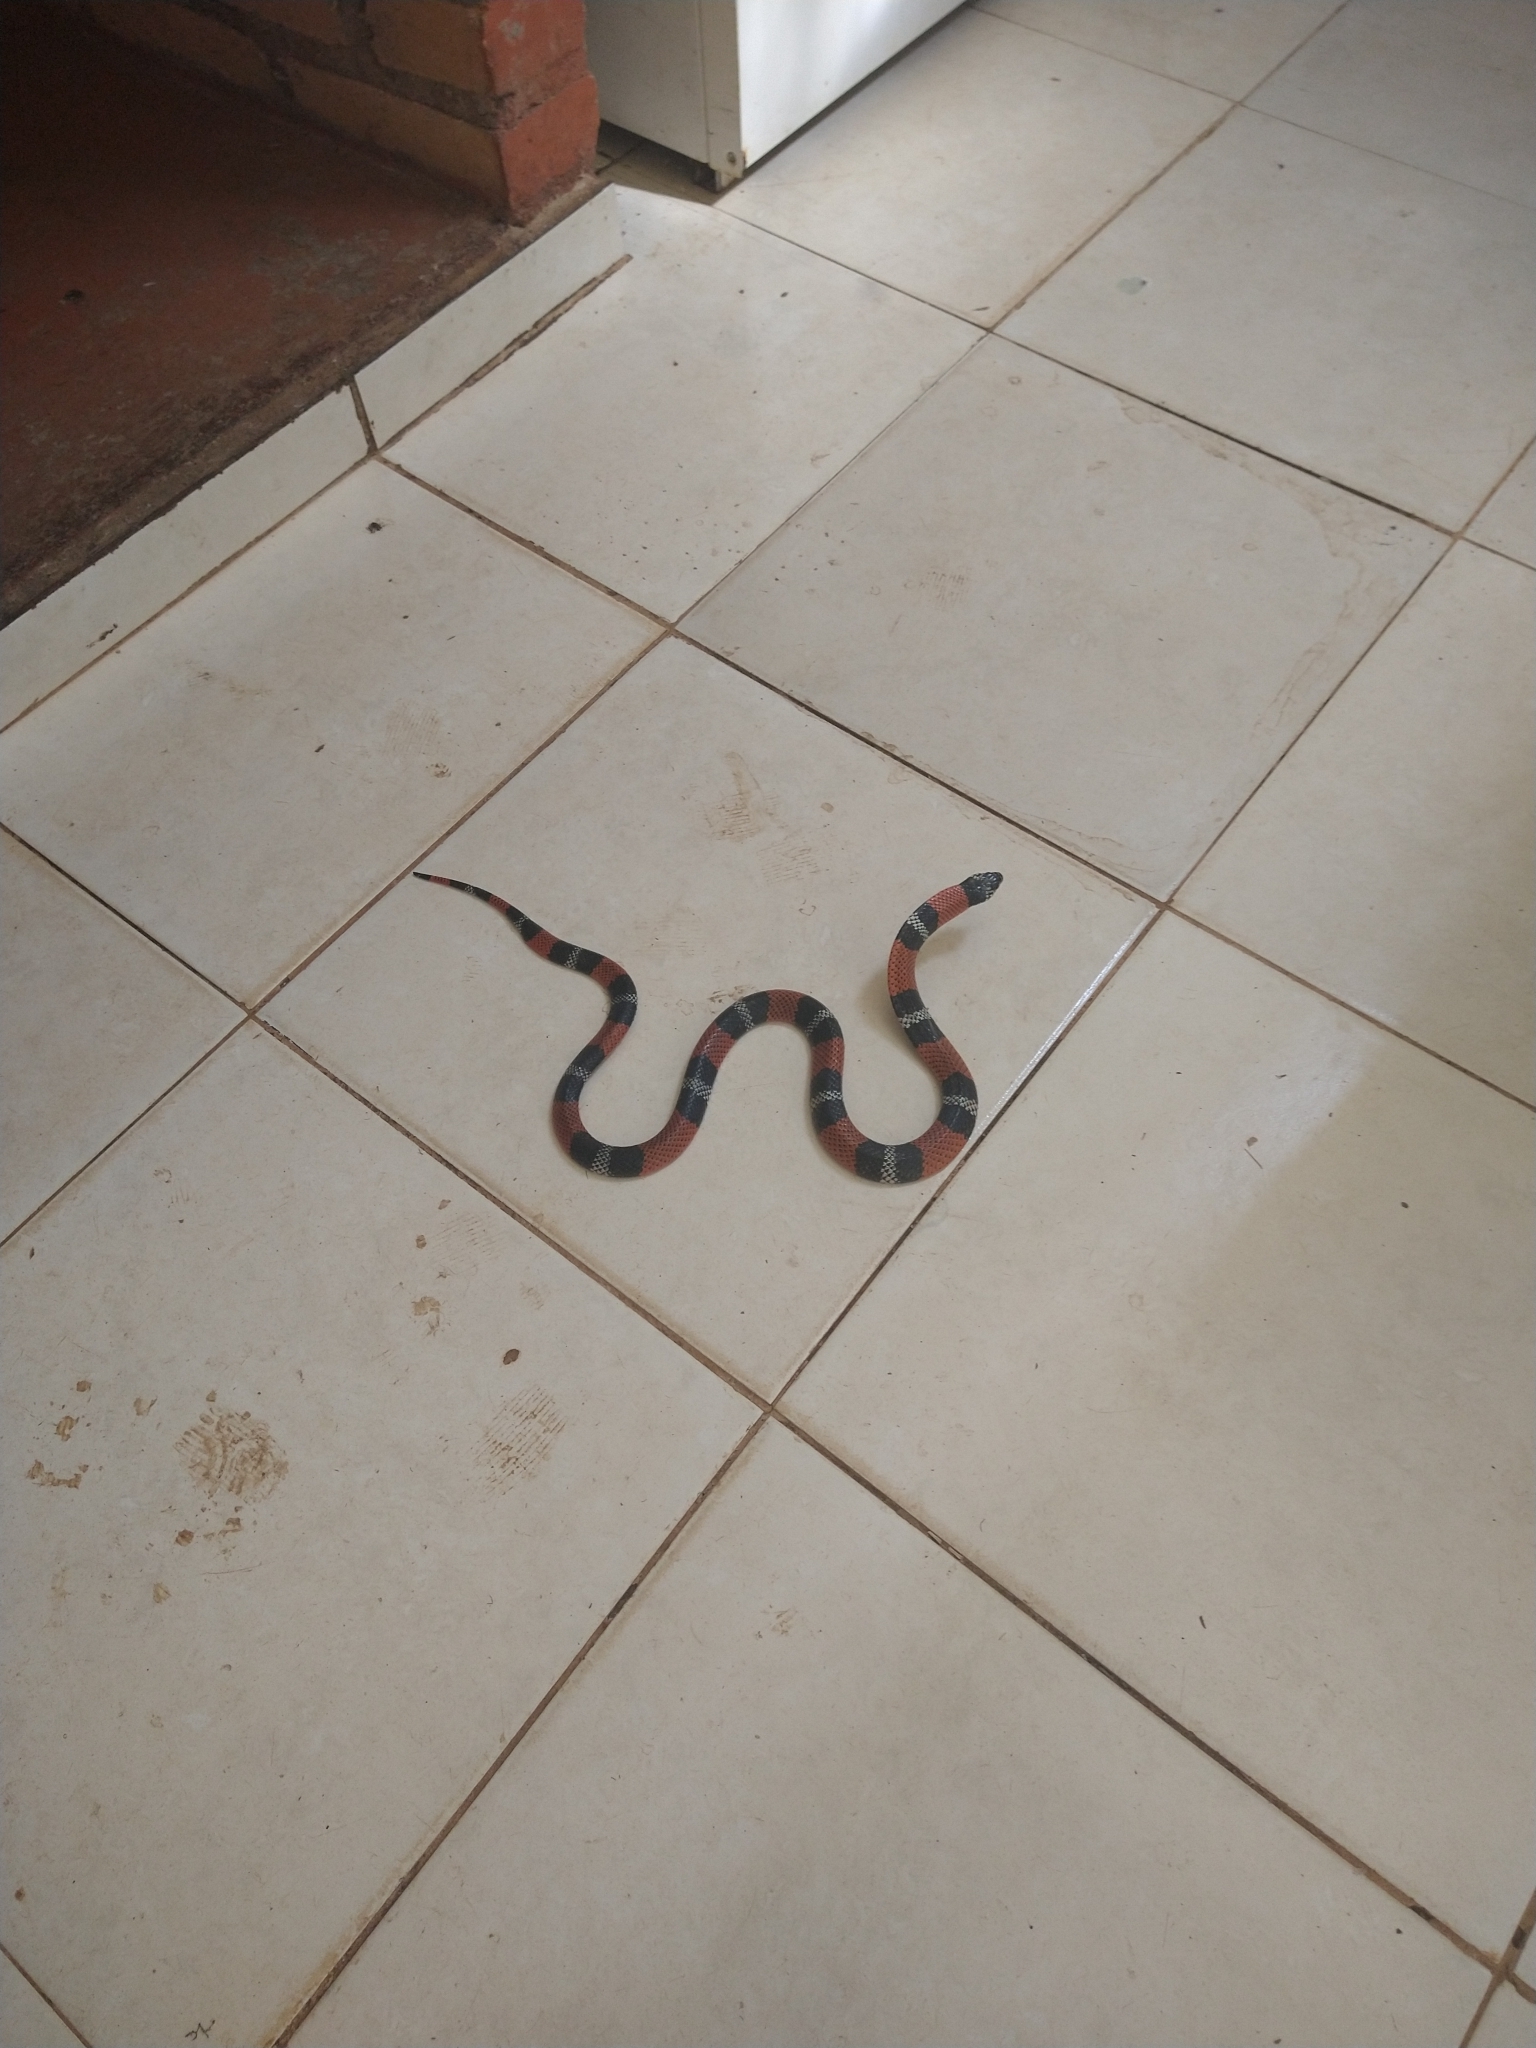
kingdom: Animalia
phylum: Chordata
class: Squamata
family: Colubridae
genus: Erythrolamprus
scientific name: Erythrolamprus aesculapii
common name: Aesculapian false coral snake
